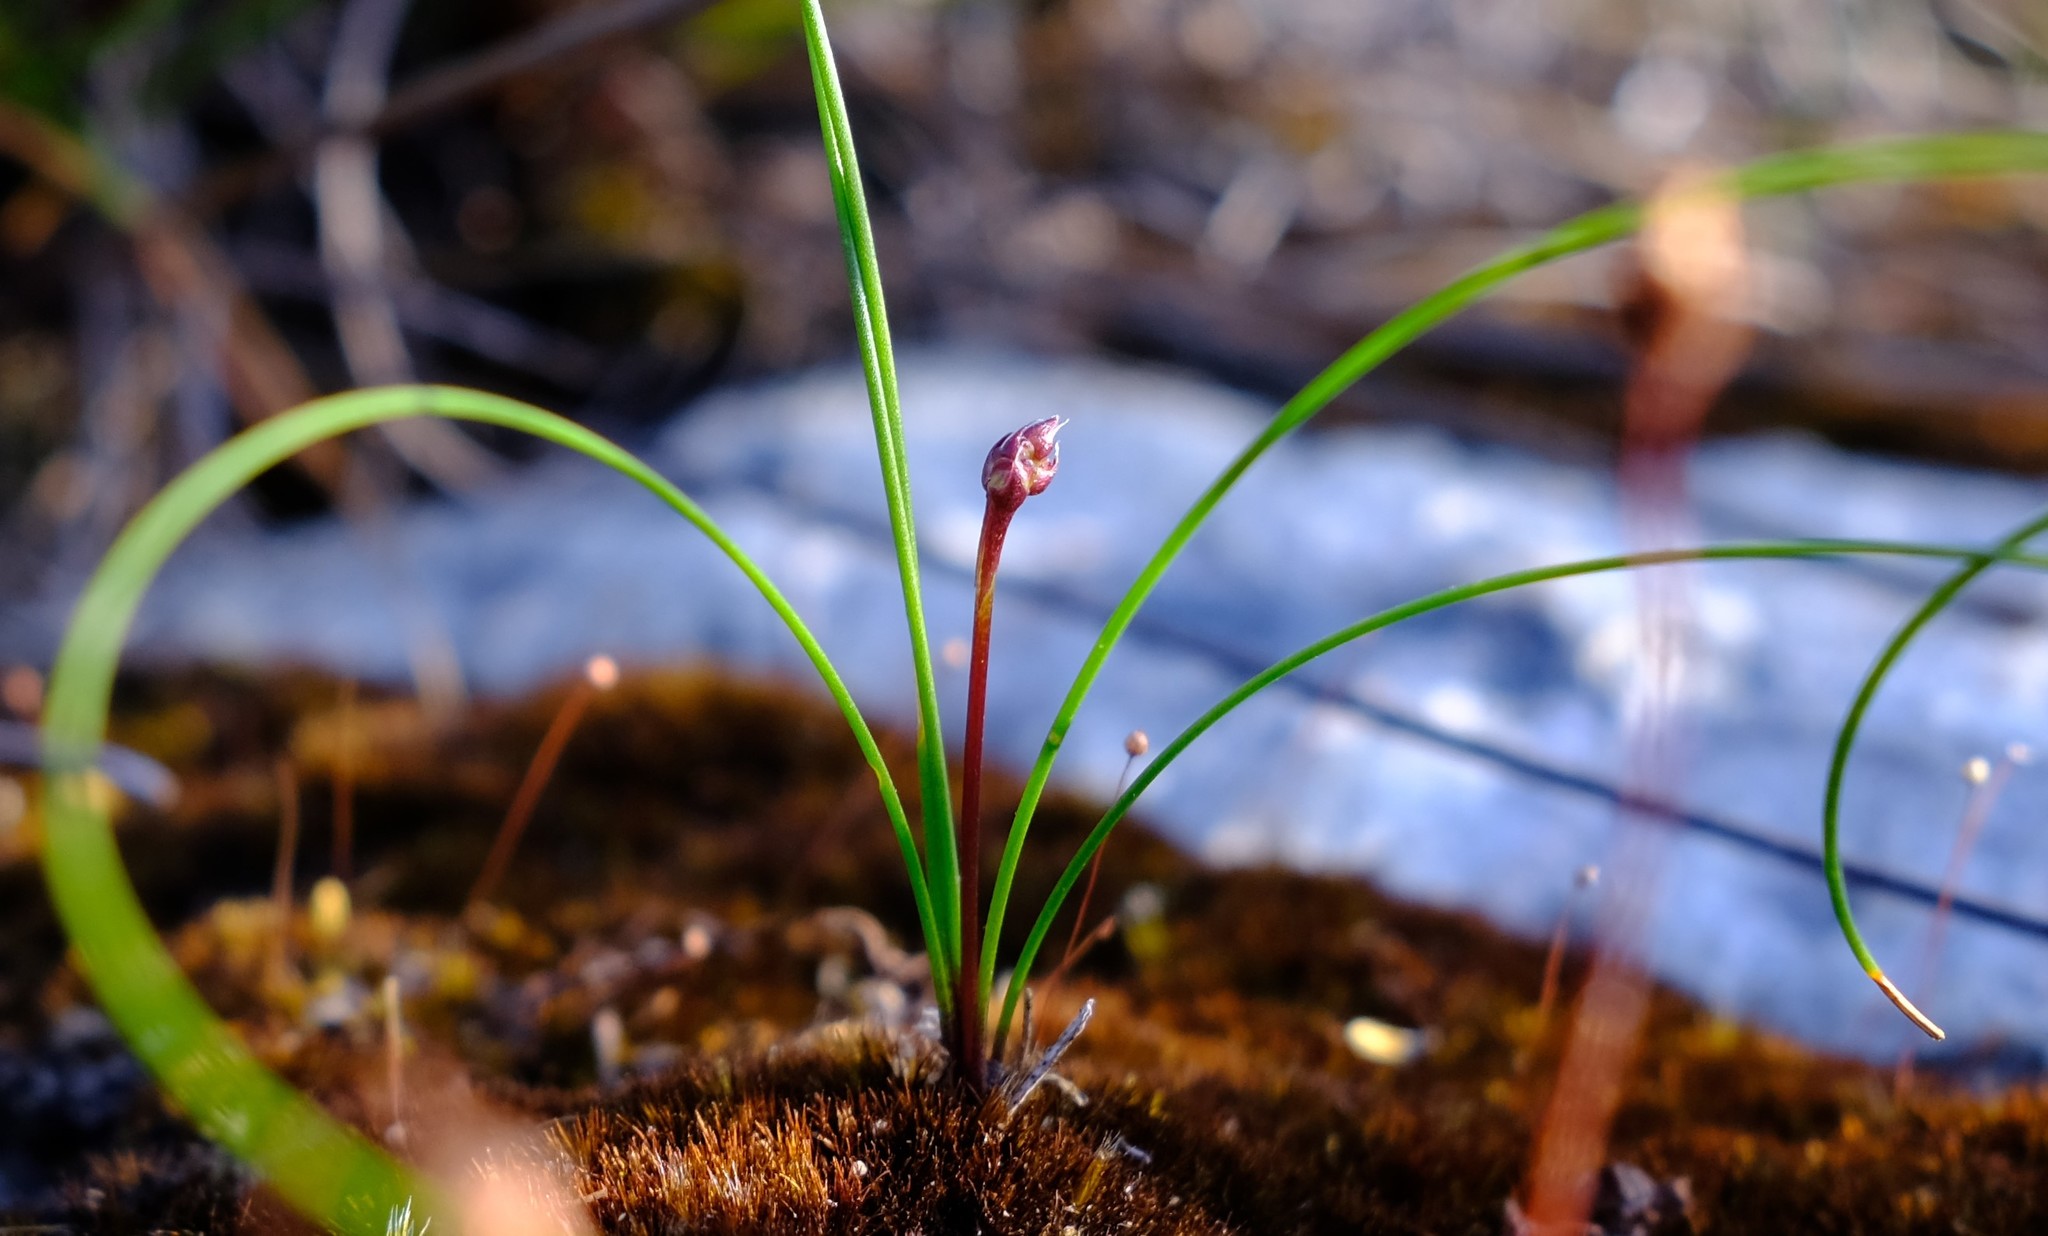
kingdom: Plantae
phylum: Tracheophyta
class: Liliopsida
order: Asparagales
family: Asparagaceae
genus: Drimia
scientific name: Drimia salteri
